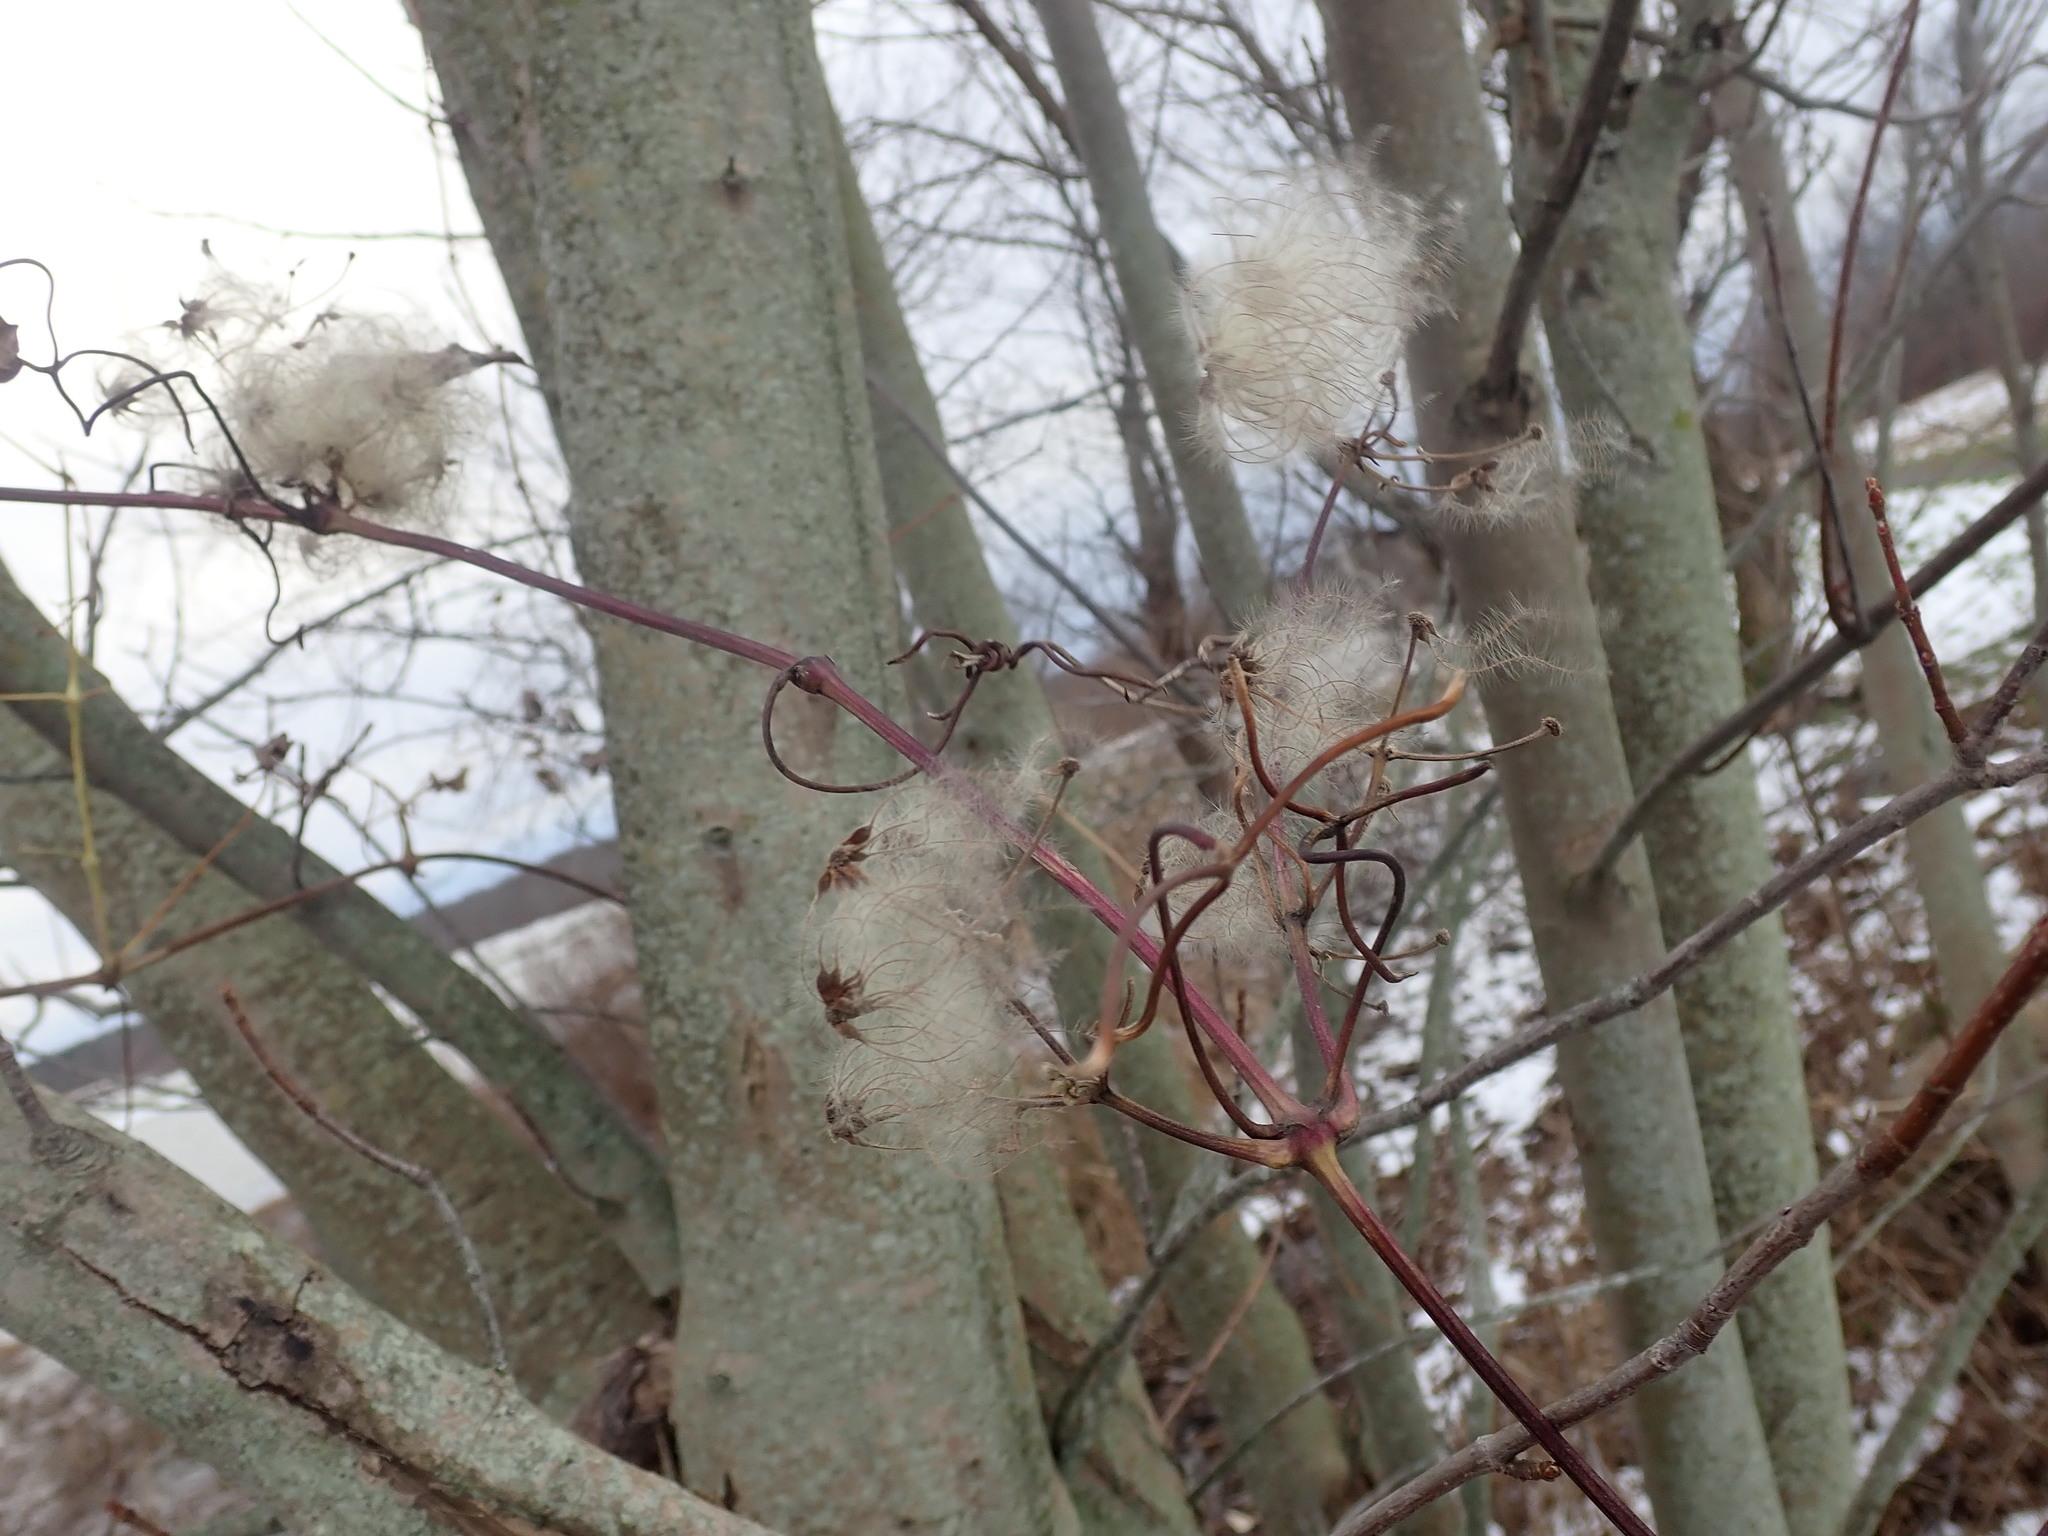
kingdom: Plantae
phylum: Tracheophyta
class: Magnoliopsida
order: Ranunculales
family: Ranunculaceae
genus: Clematis
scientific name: Clematis virginiana
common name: Virgin's-bower
